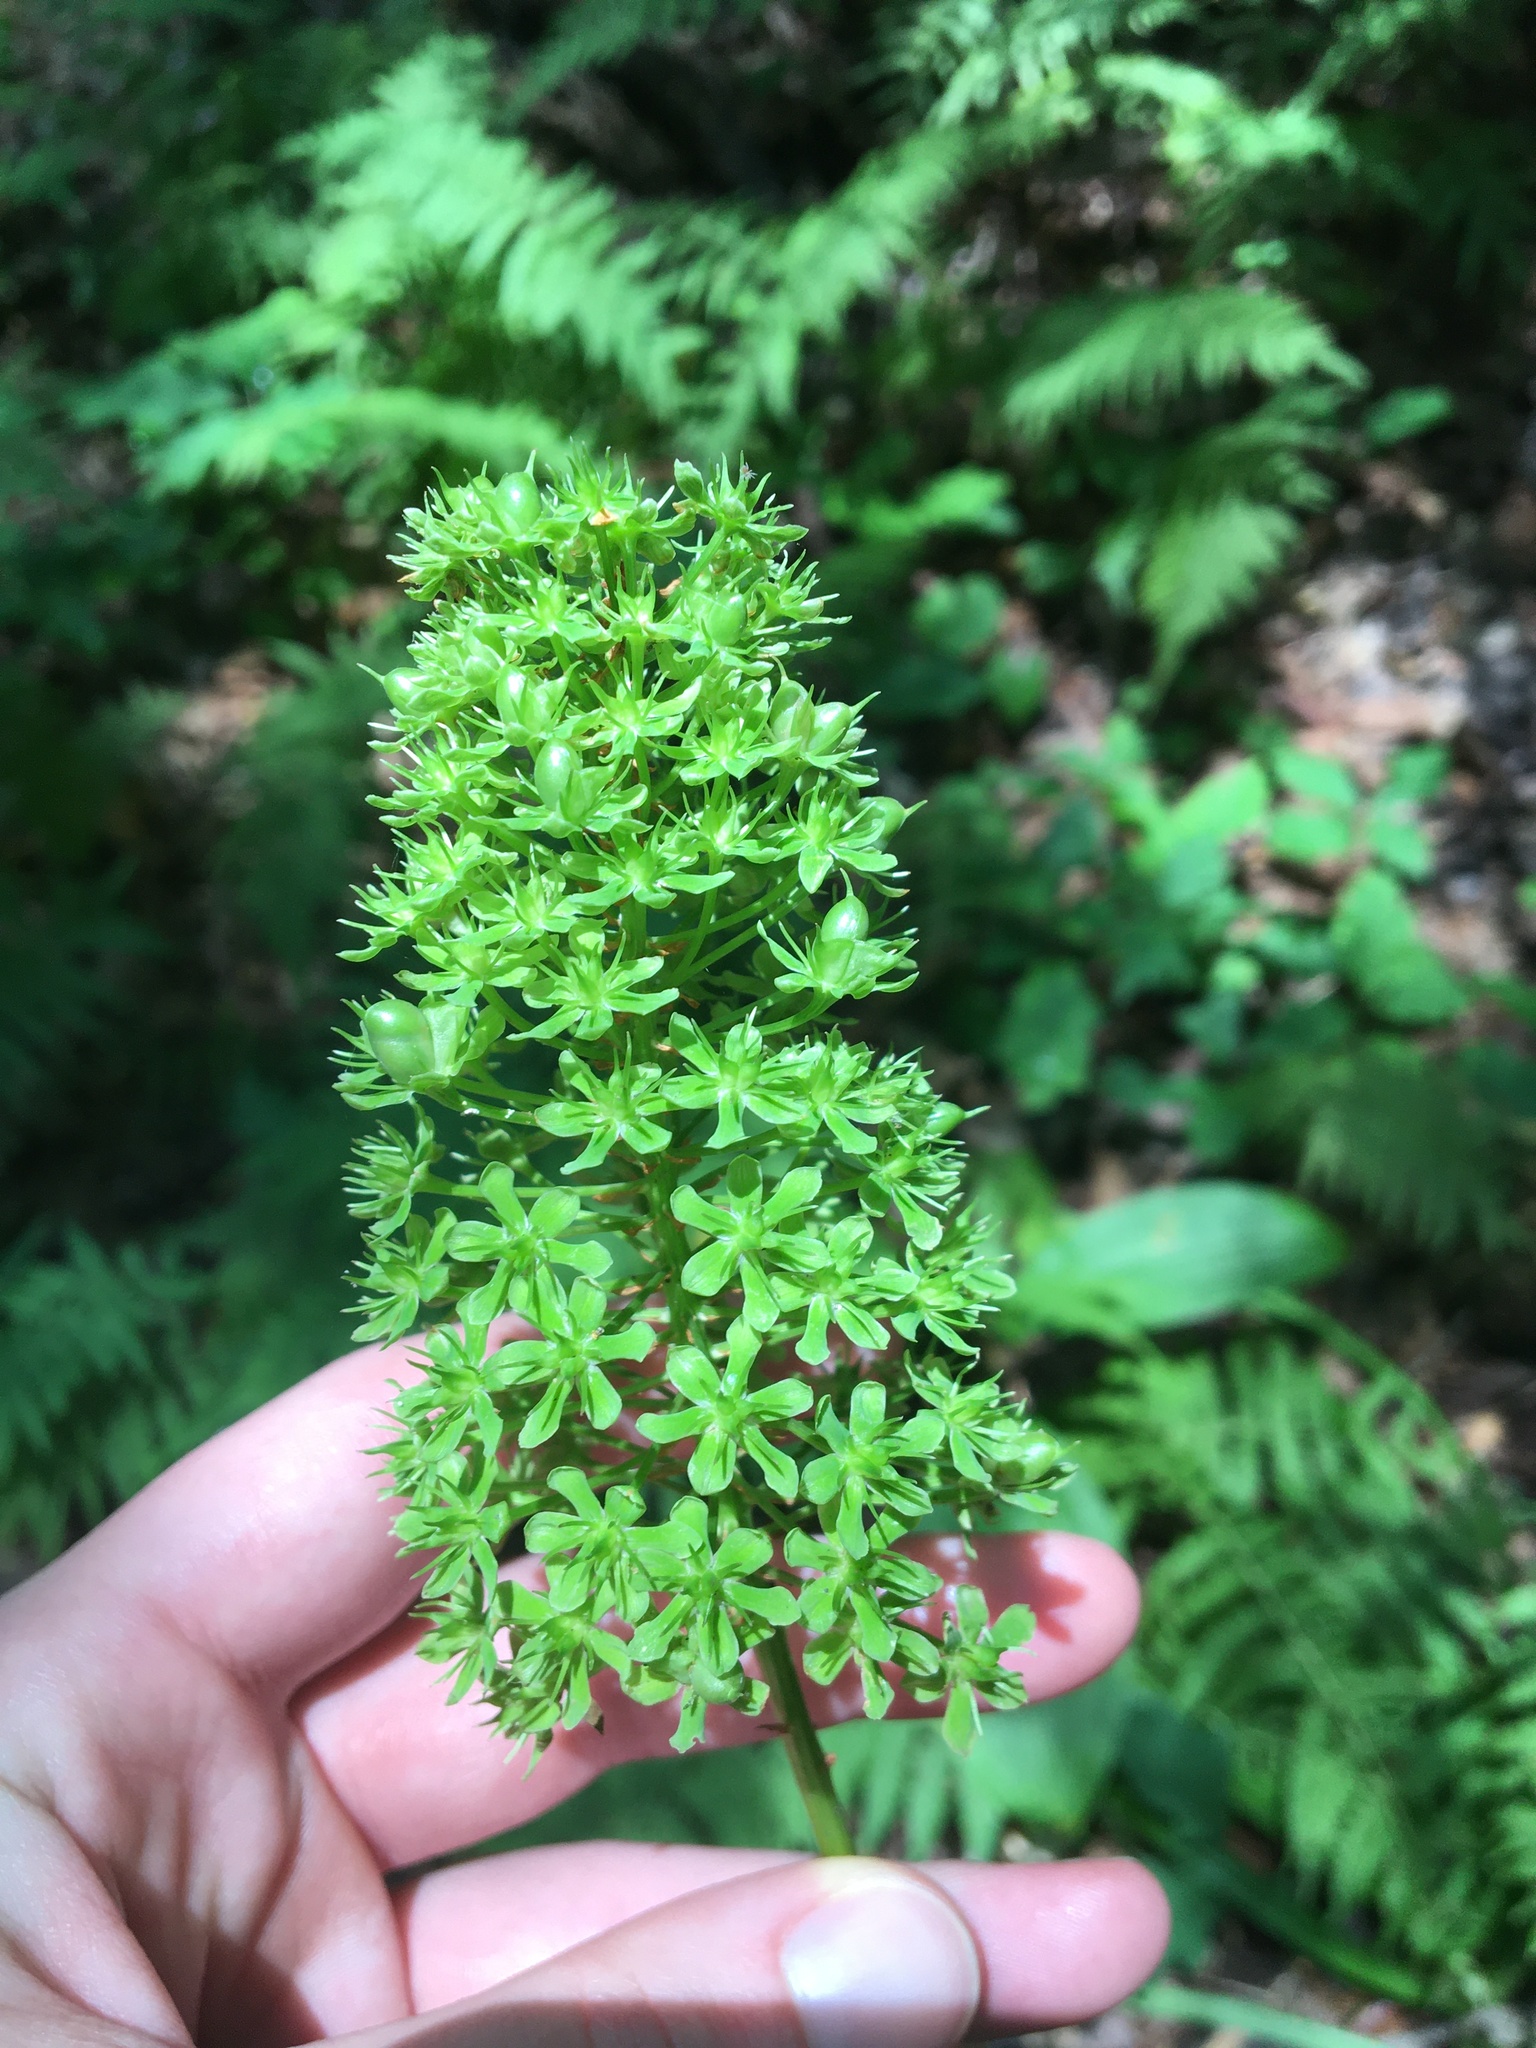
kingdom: Plantae
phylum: Tracheophyta
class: Liliopsida
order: Liliales
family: Melanthiaceae
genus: Amianthium
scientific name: Amianthium muscitoxicum
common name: Fly-poison
